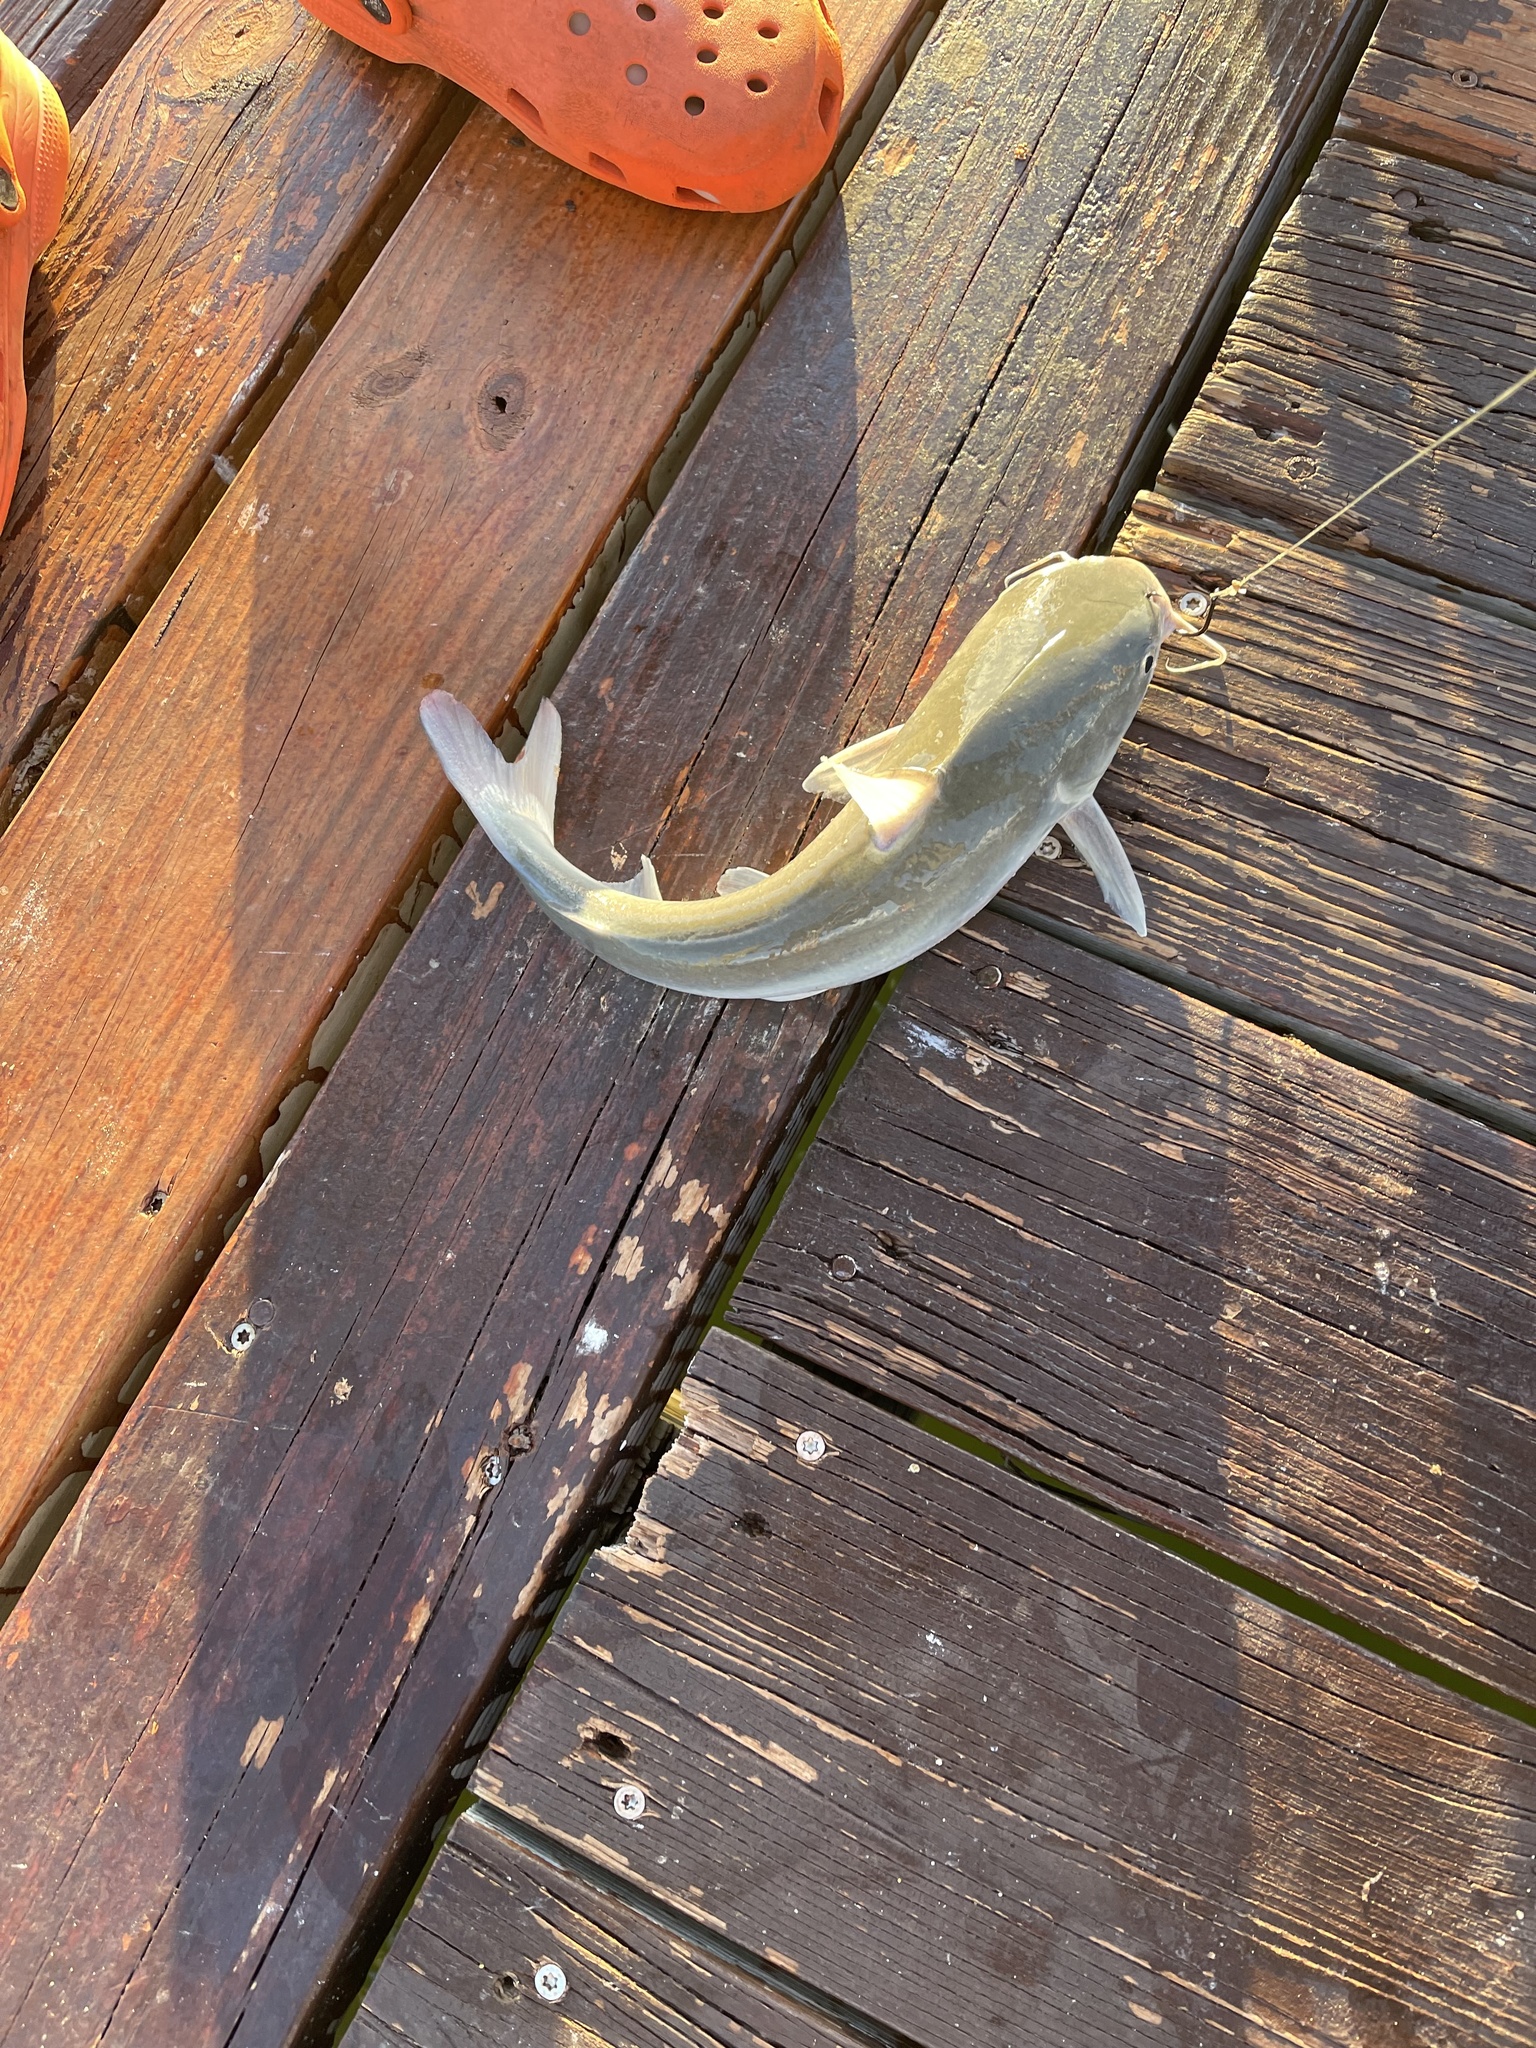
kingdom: Animalia
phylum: Chordata
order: Siluriformes
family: Ariidae
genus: Ariopsis
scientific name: Ariopsis felis
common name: Hardhead catfish
